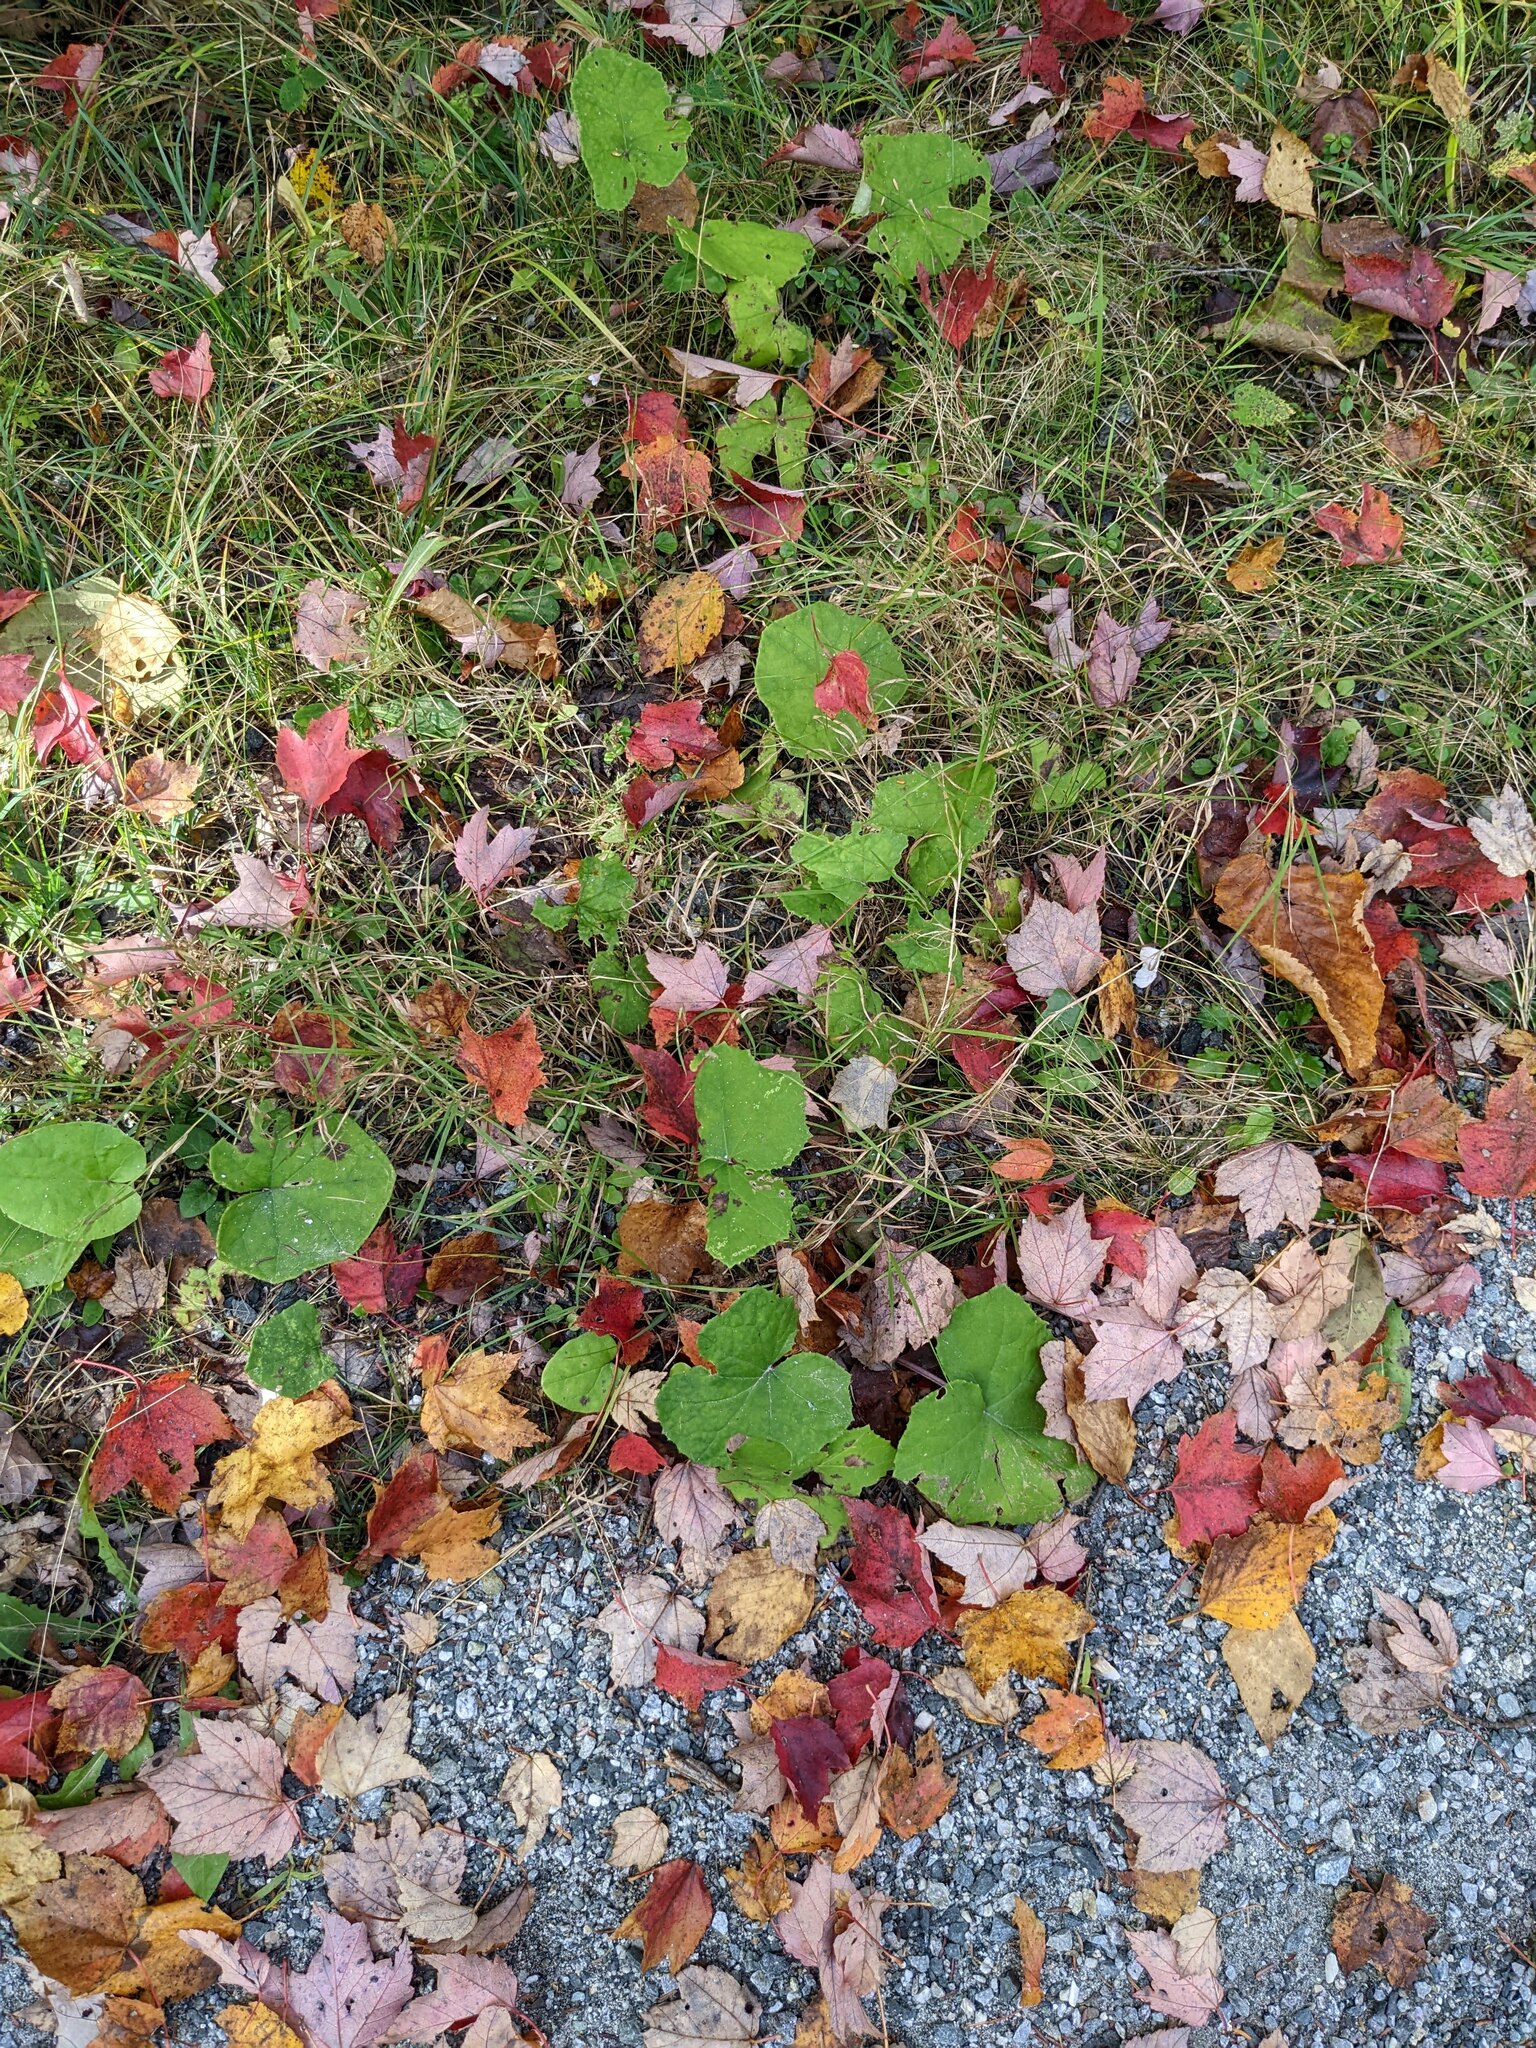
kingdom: Plantae
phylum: Tracheophyta
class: Magnoliopsida
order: Asterales
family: Asteraceae
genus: Tussilago
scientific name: Tussilago farfara
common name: Coltsfoot
